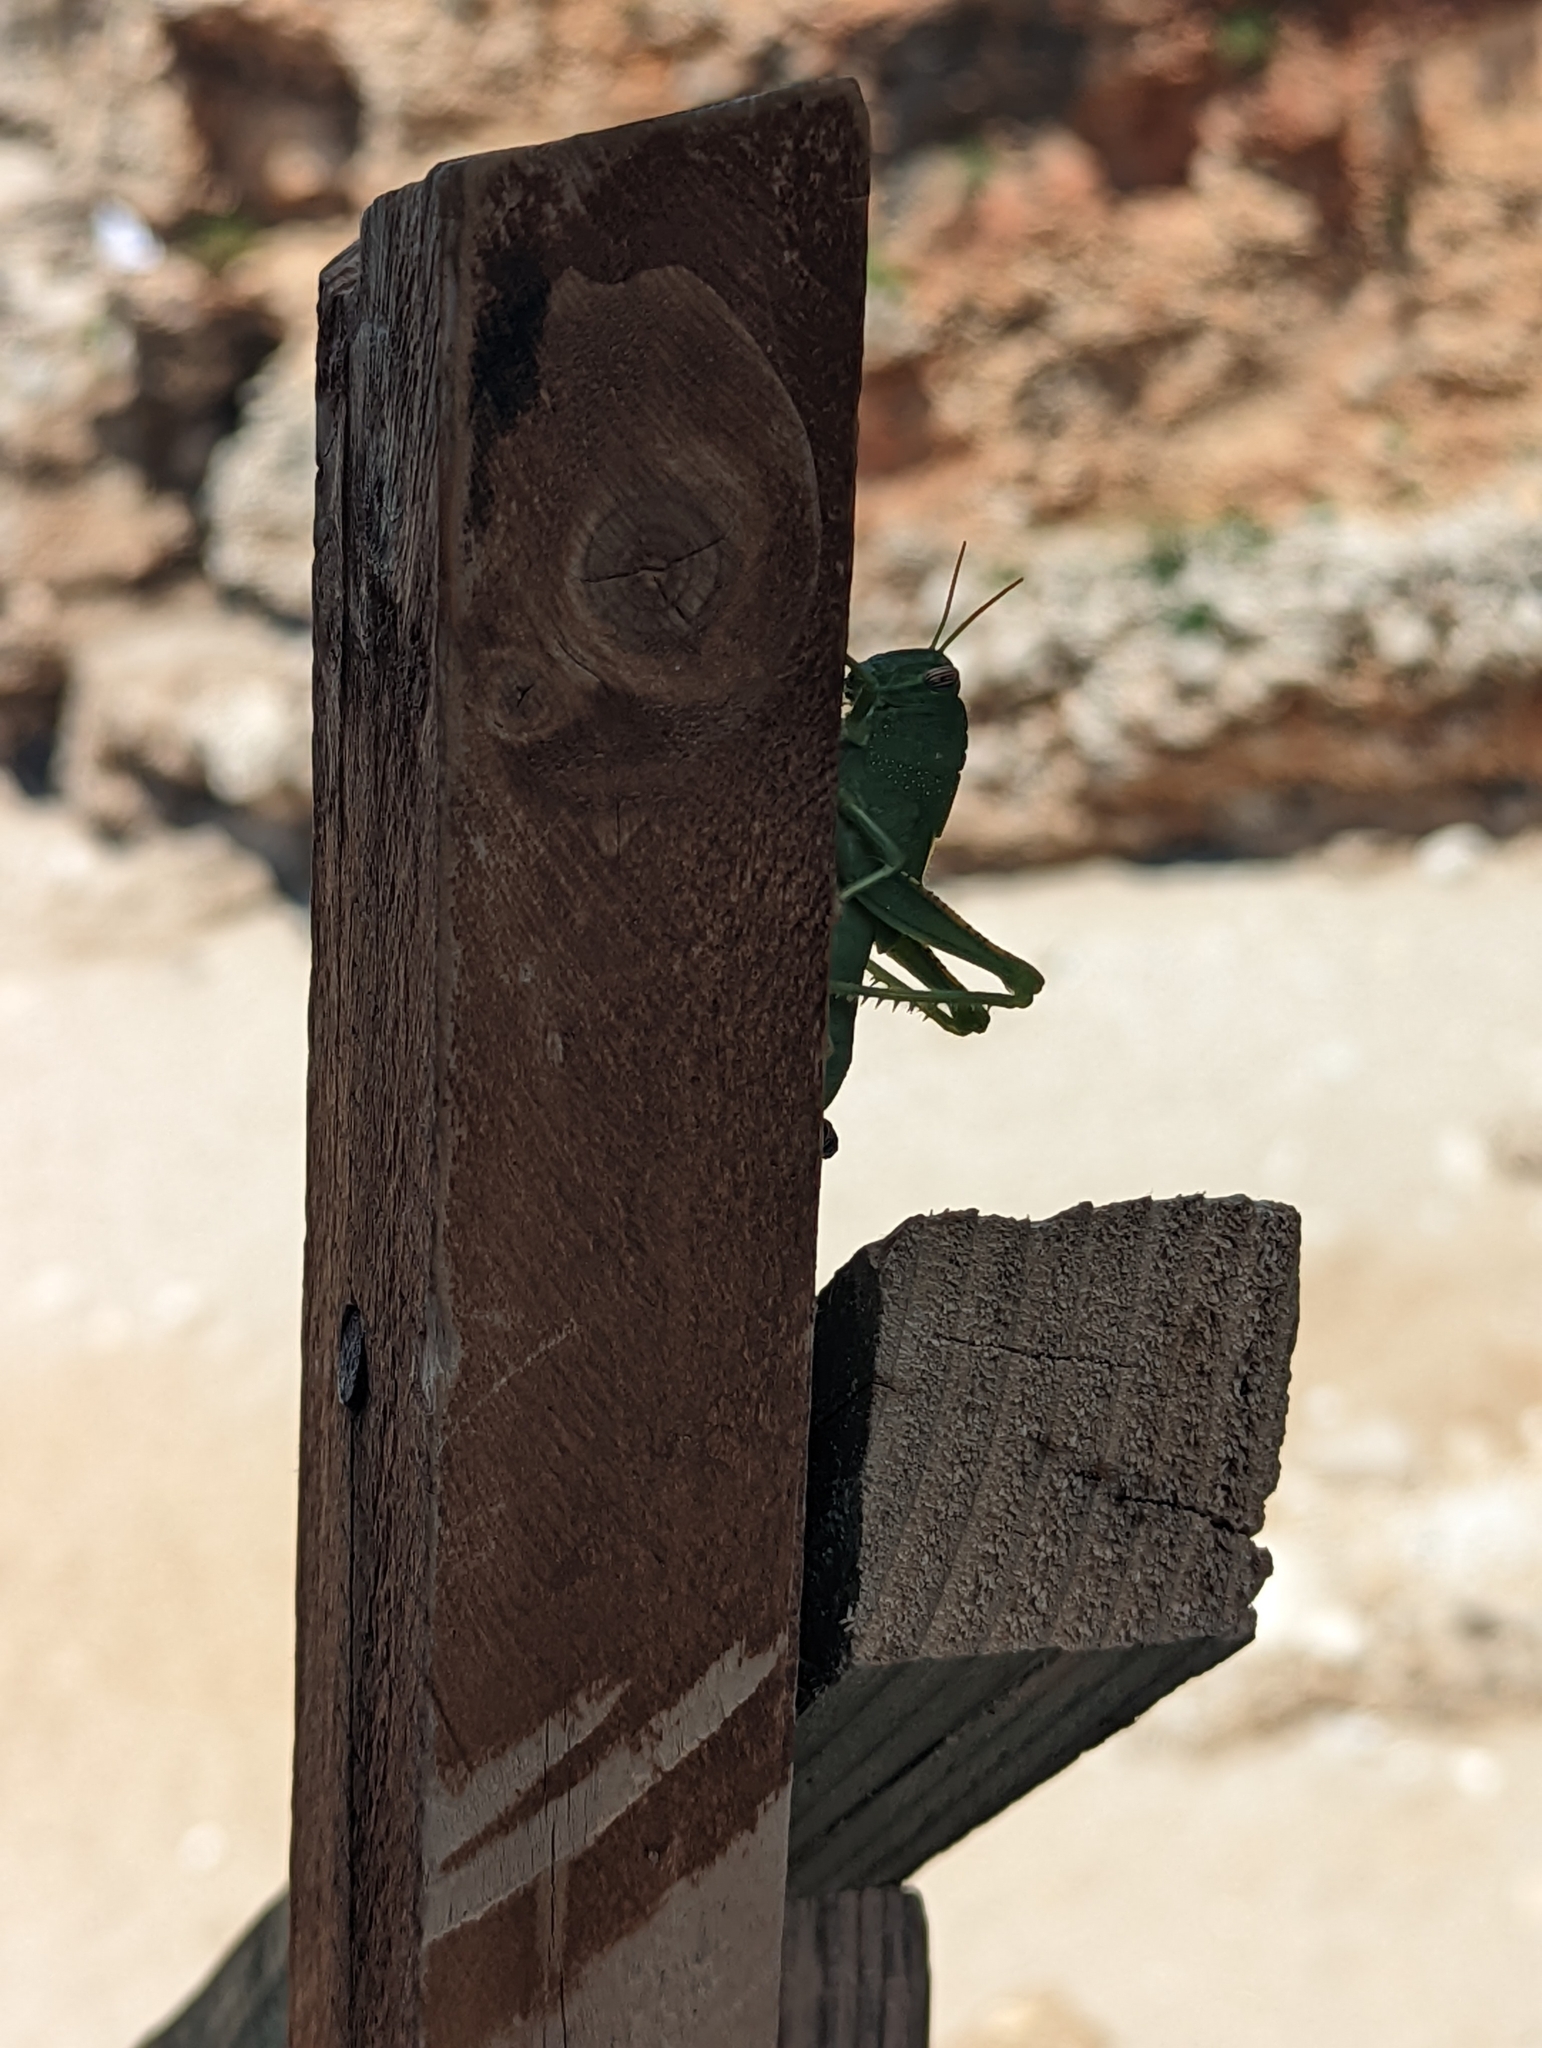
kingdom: Animalia
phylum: Arthropoda
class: Insecta
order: Orthoptera
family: Acrididae
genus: Anacridium
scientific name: Anacridium aegyptium
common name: Egyptian grasshopper
